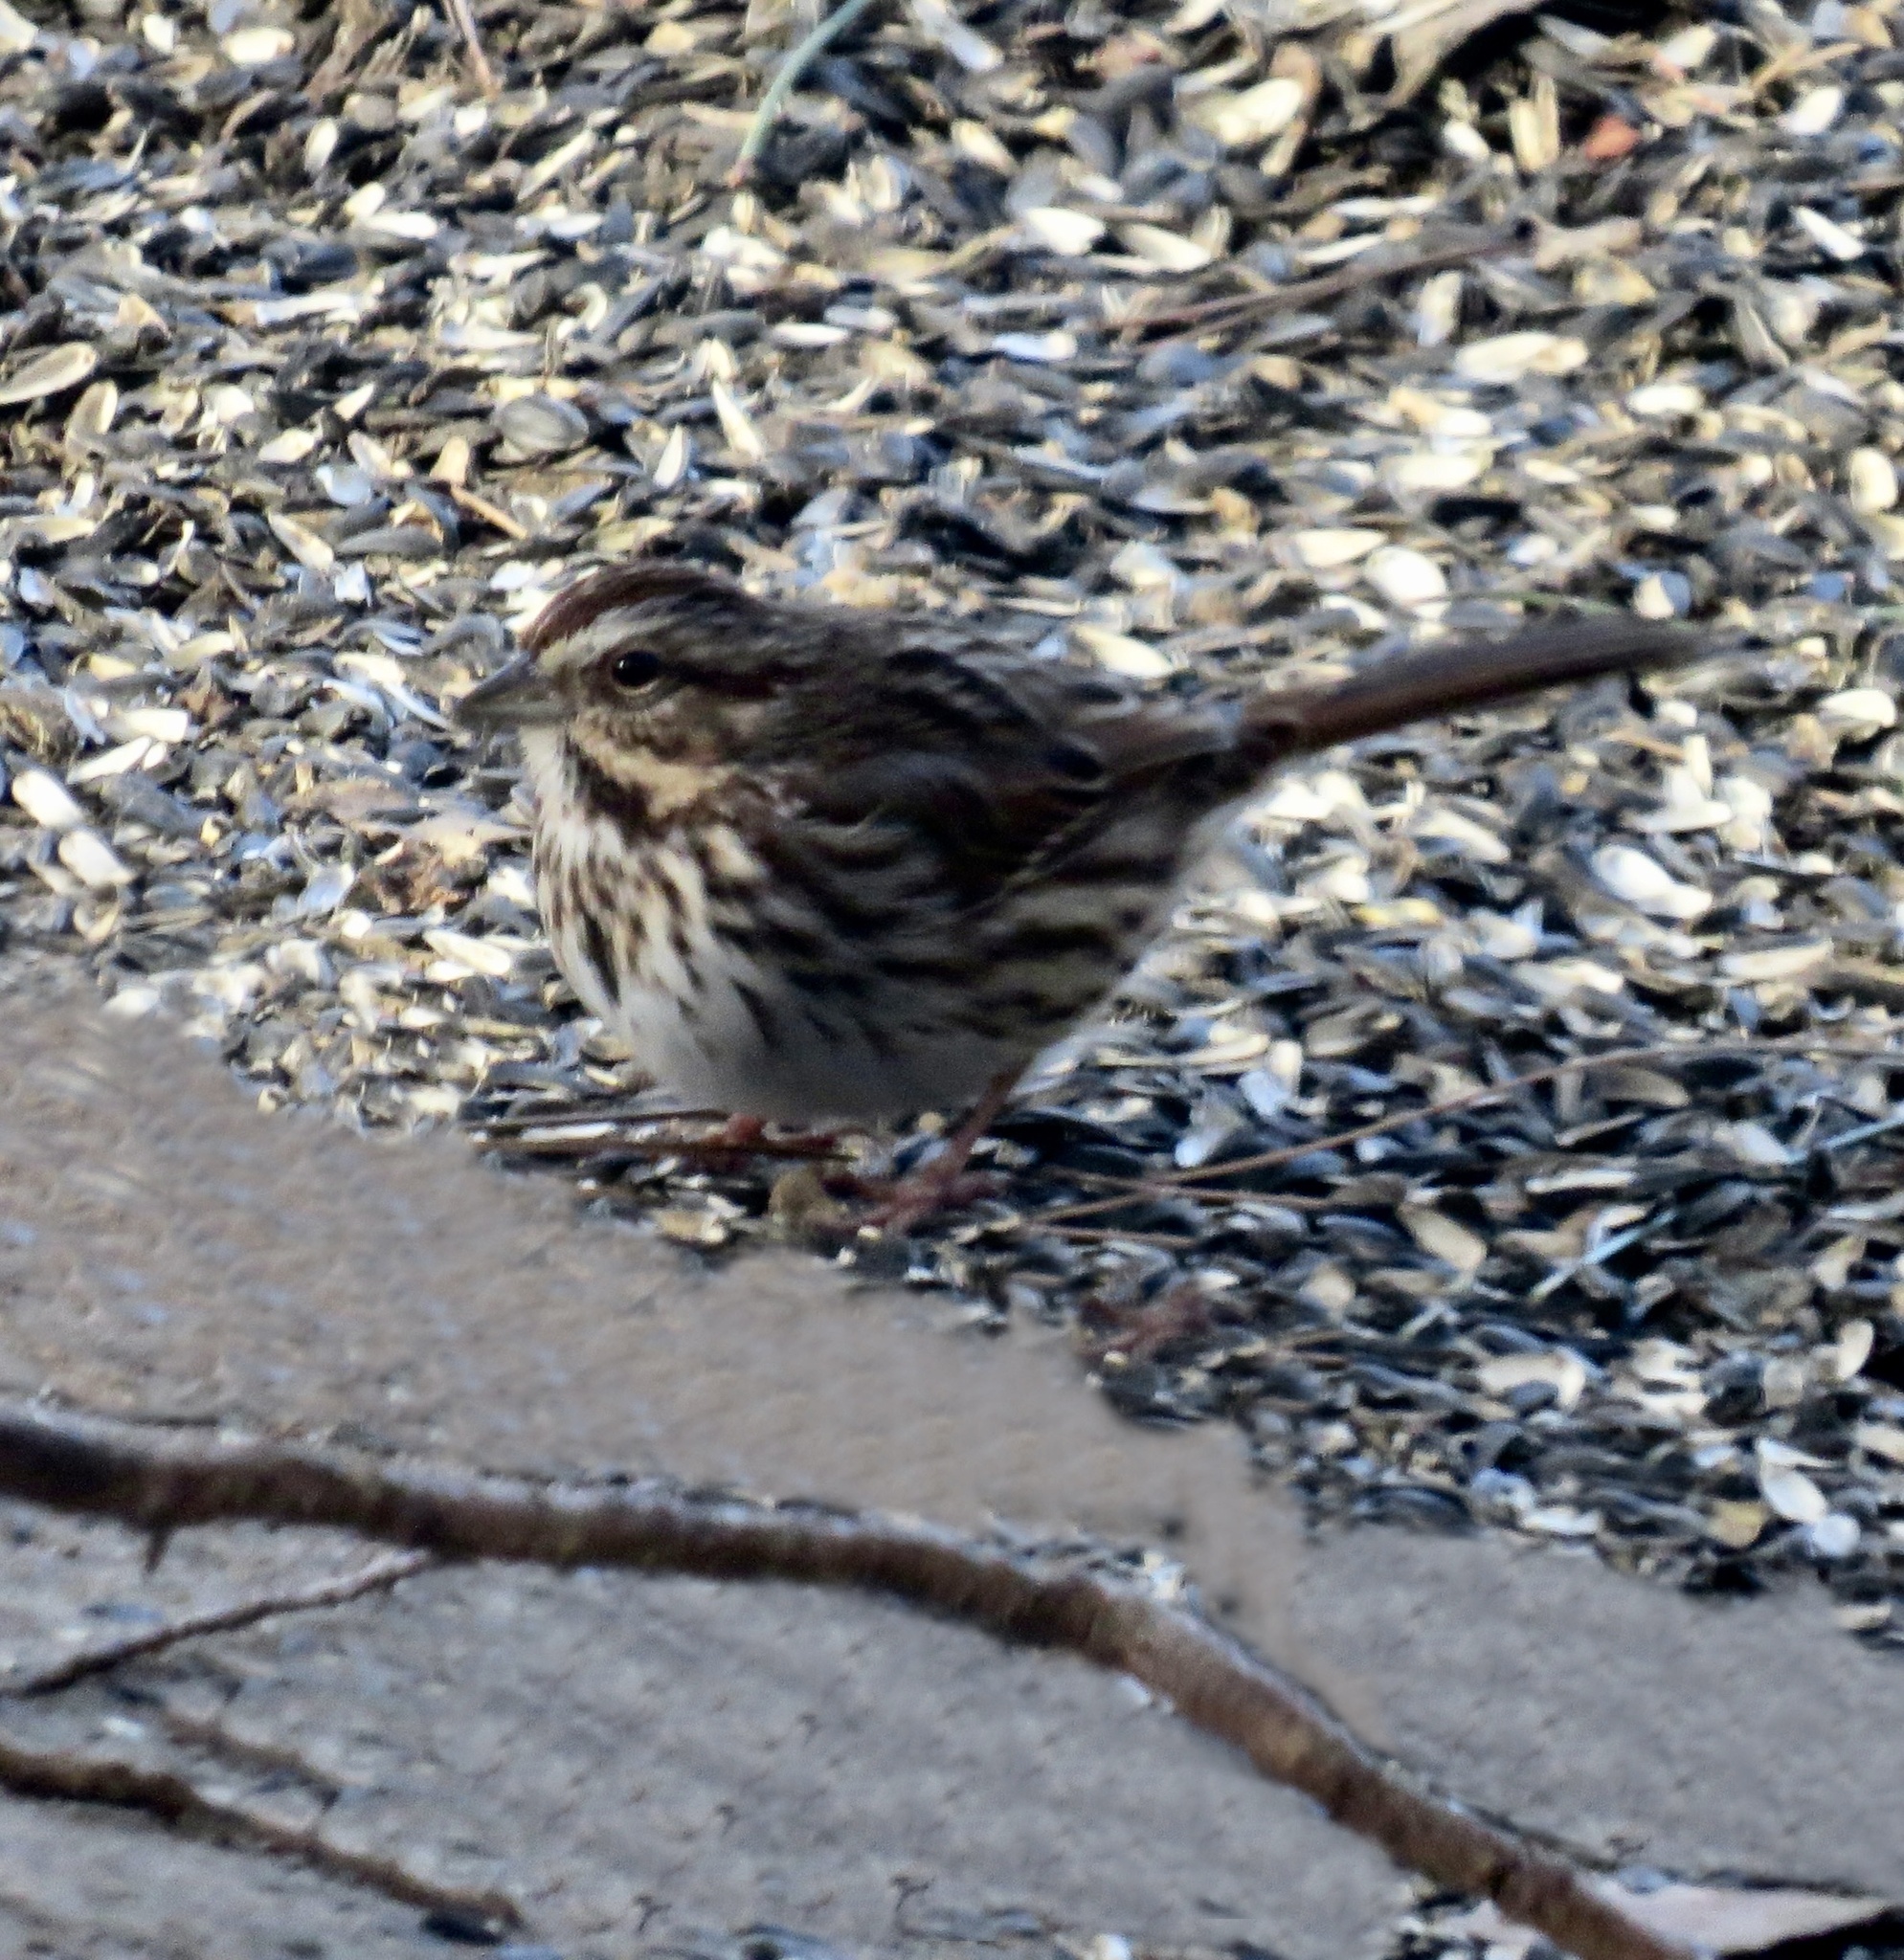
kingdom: Animalia
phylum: Chordata
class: Aves
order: Passeriformes
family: Passerellidae
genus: Melospiza
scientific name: Melospiza melodia
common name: Song sparrow
